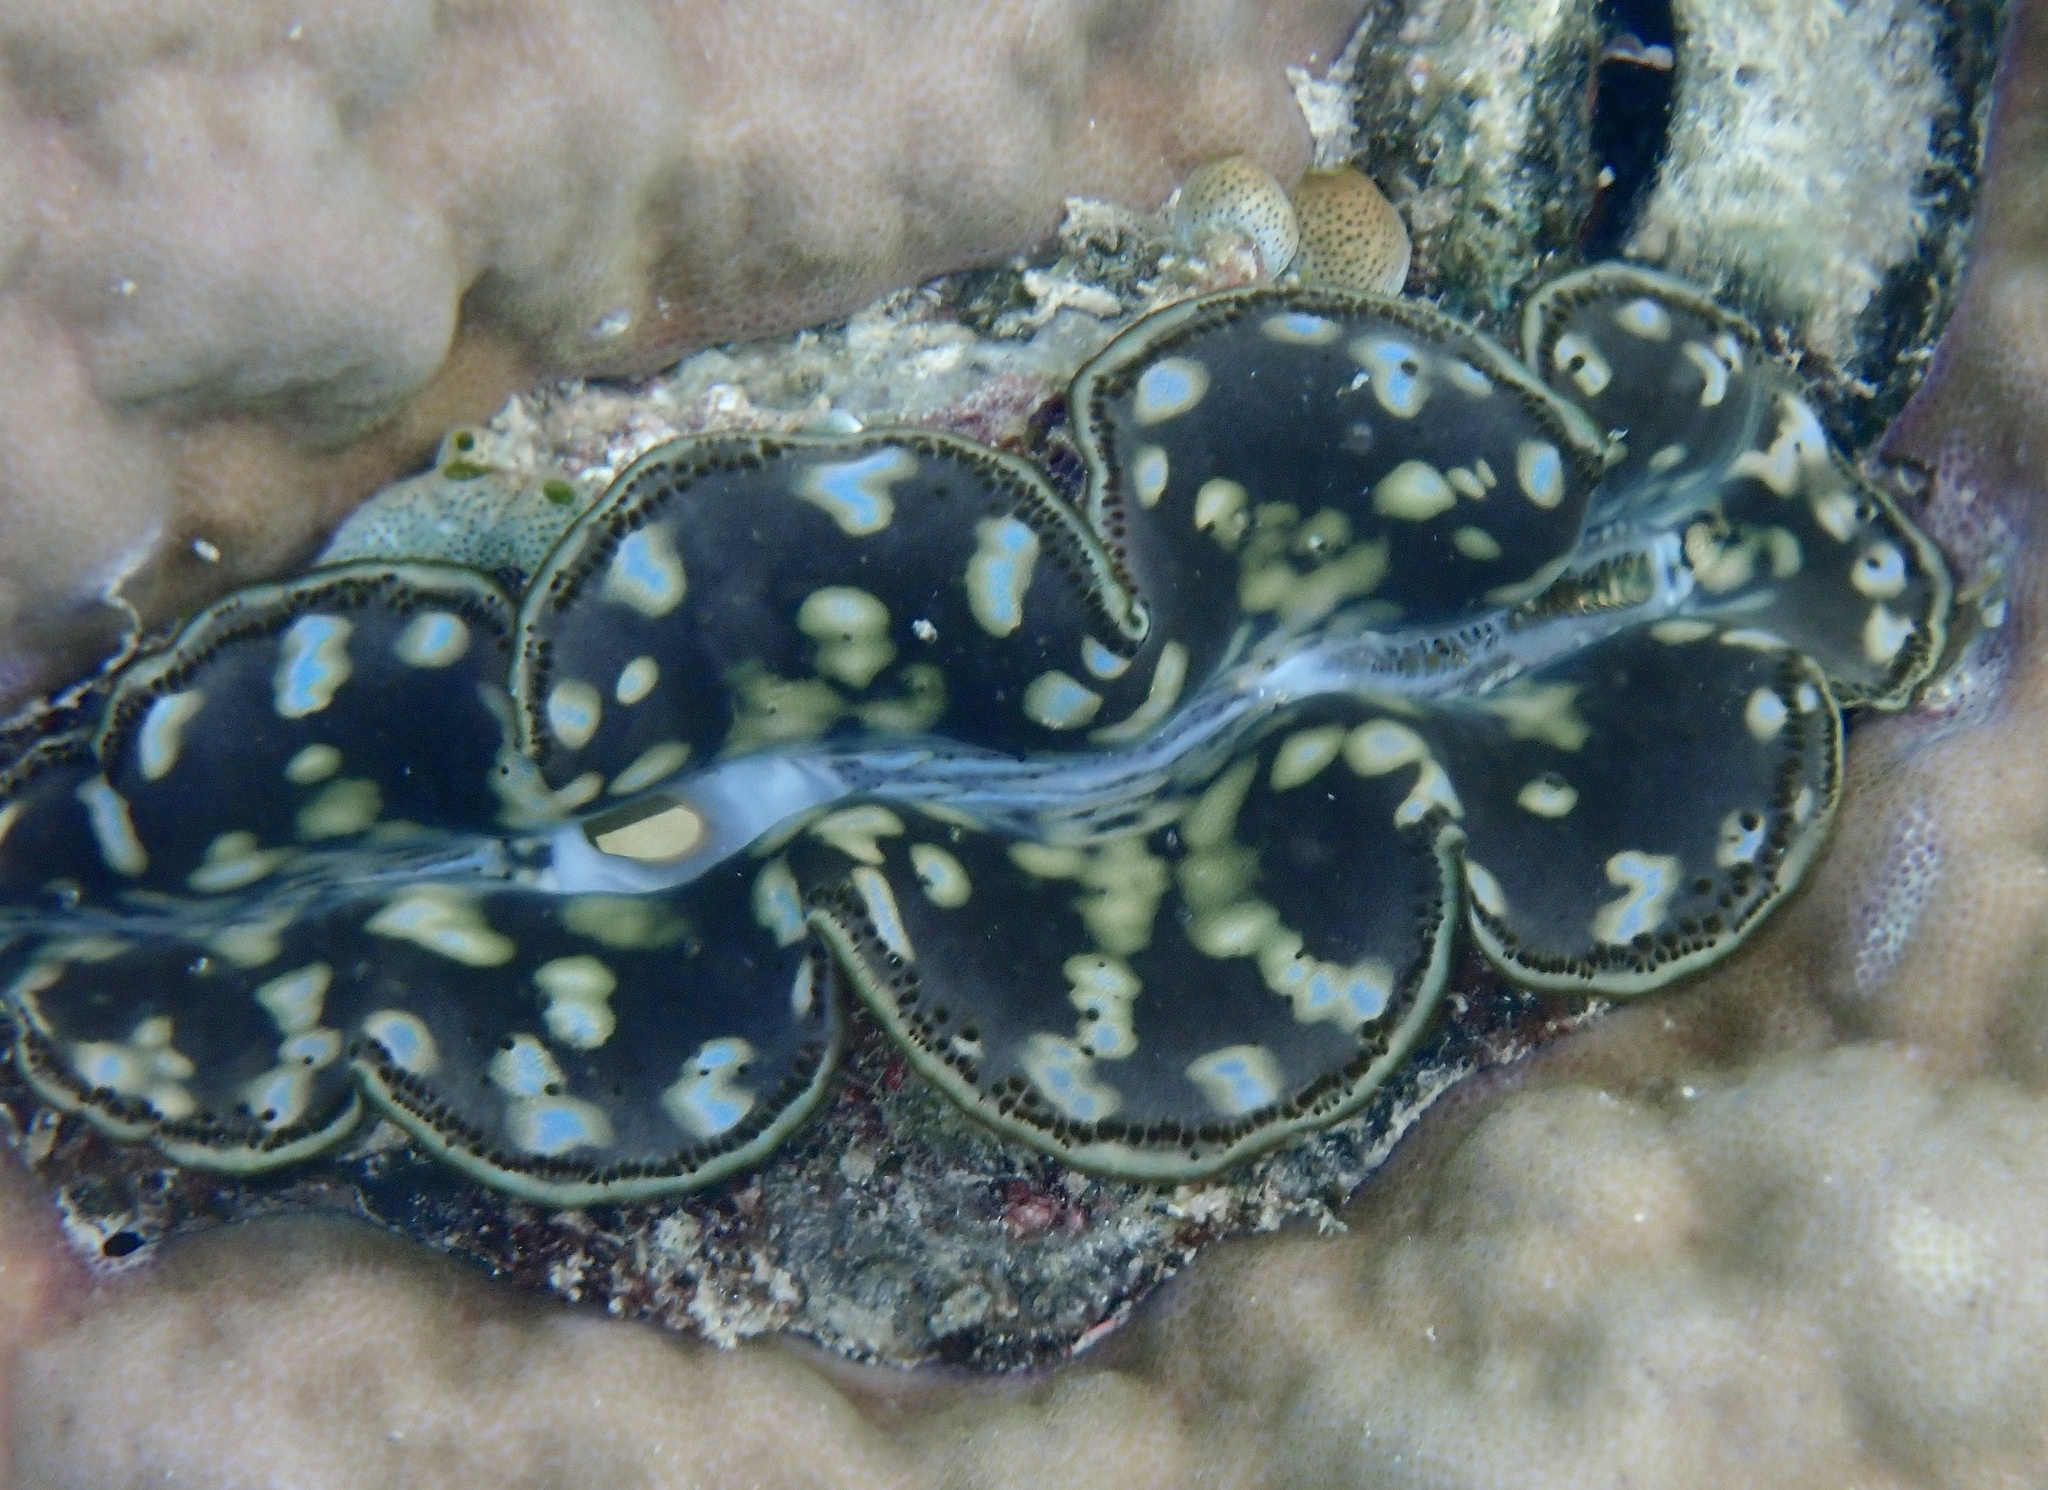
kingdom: Animalia
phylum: Mollusca
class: Bivalvia
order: Cardiida
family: Cardiidae
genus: Tridacna
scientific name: Tridacna maxima
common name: Small giant clam
